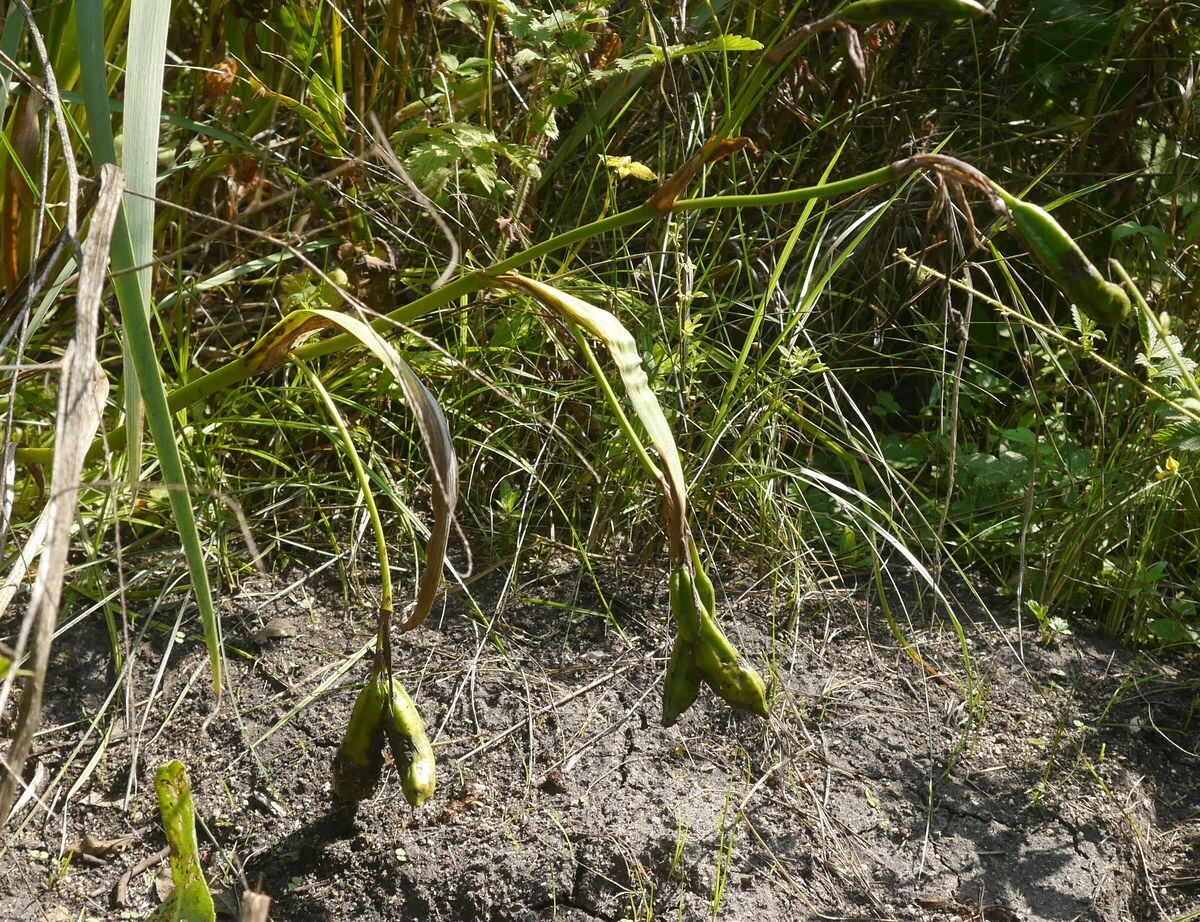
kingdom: Plantae
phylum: Tracheophyta
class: Liliopsida
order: Asparagales
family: Iridaceae
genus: Iris
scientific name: Iris pseudacorus
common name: Yellow flag
